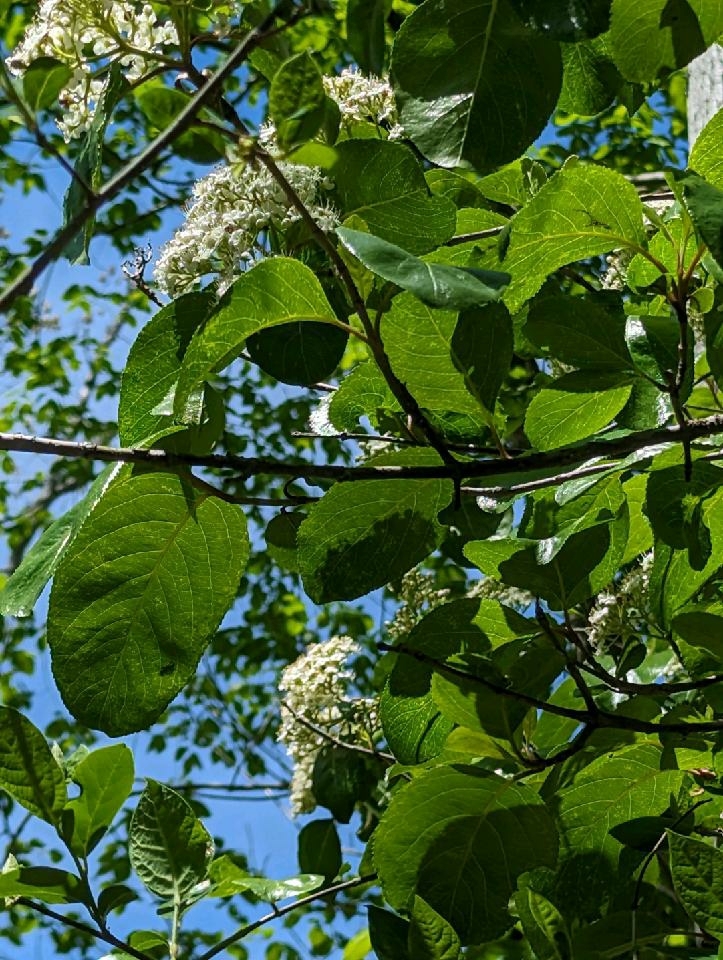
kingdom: Plantae
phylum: Tracheophyta
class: Magnoliopsida
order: Dipsacales
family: Viburnaceae
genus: Viburnum
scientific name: Viburnum rufidulum
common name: Blue haw
